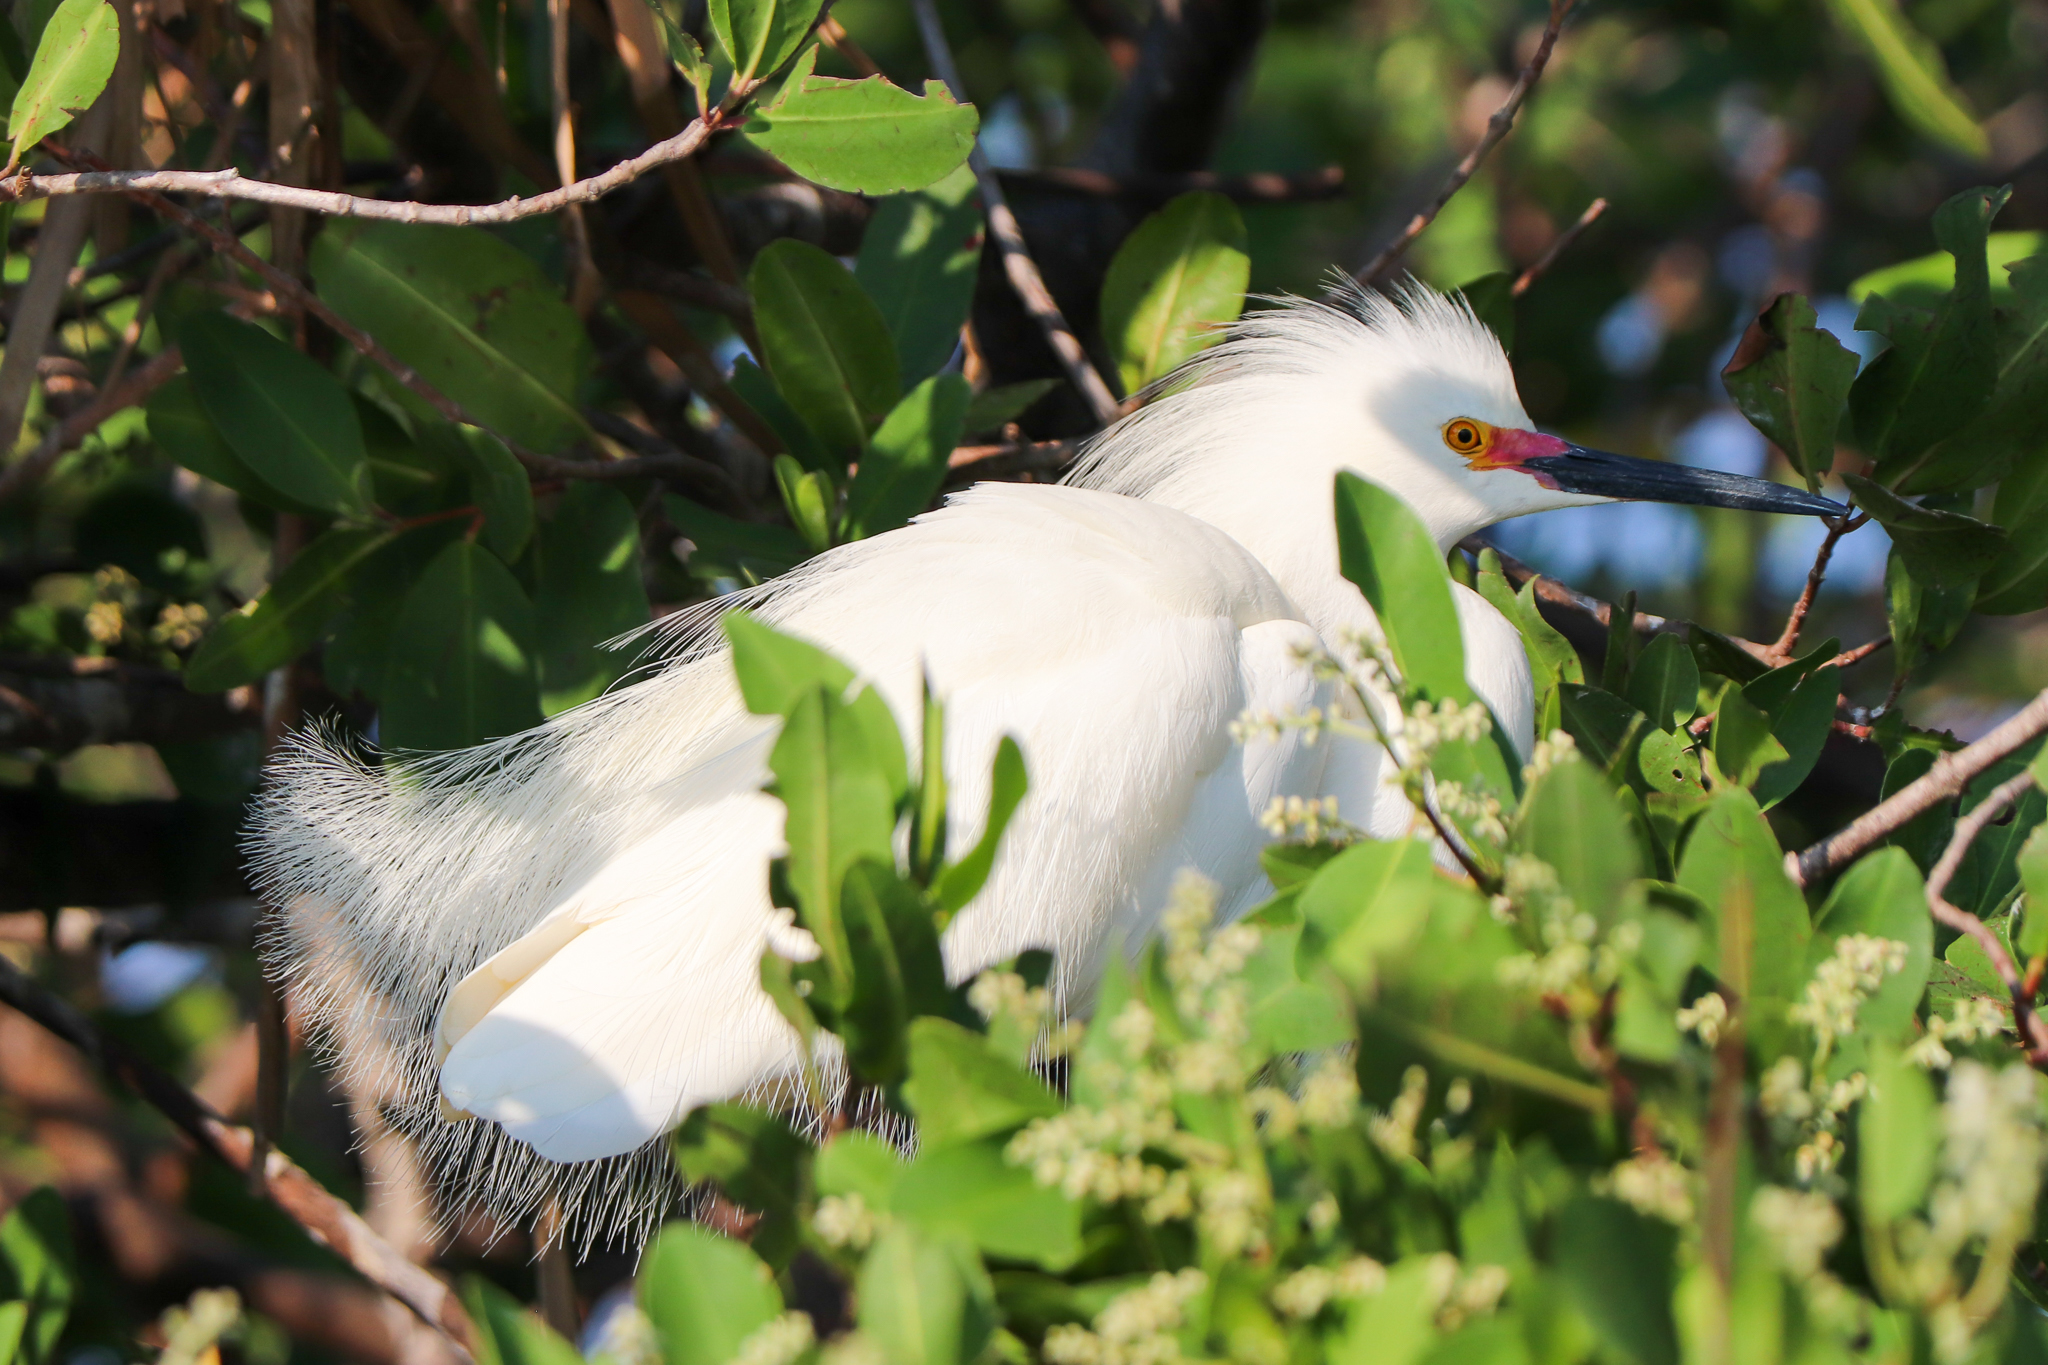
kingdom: Animalia
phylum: Chordata
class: Aves
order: Pelecaniformes
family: Ardeidae
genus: Egretta
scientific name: Egretta thula
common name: Snowy egret
